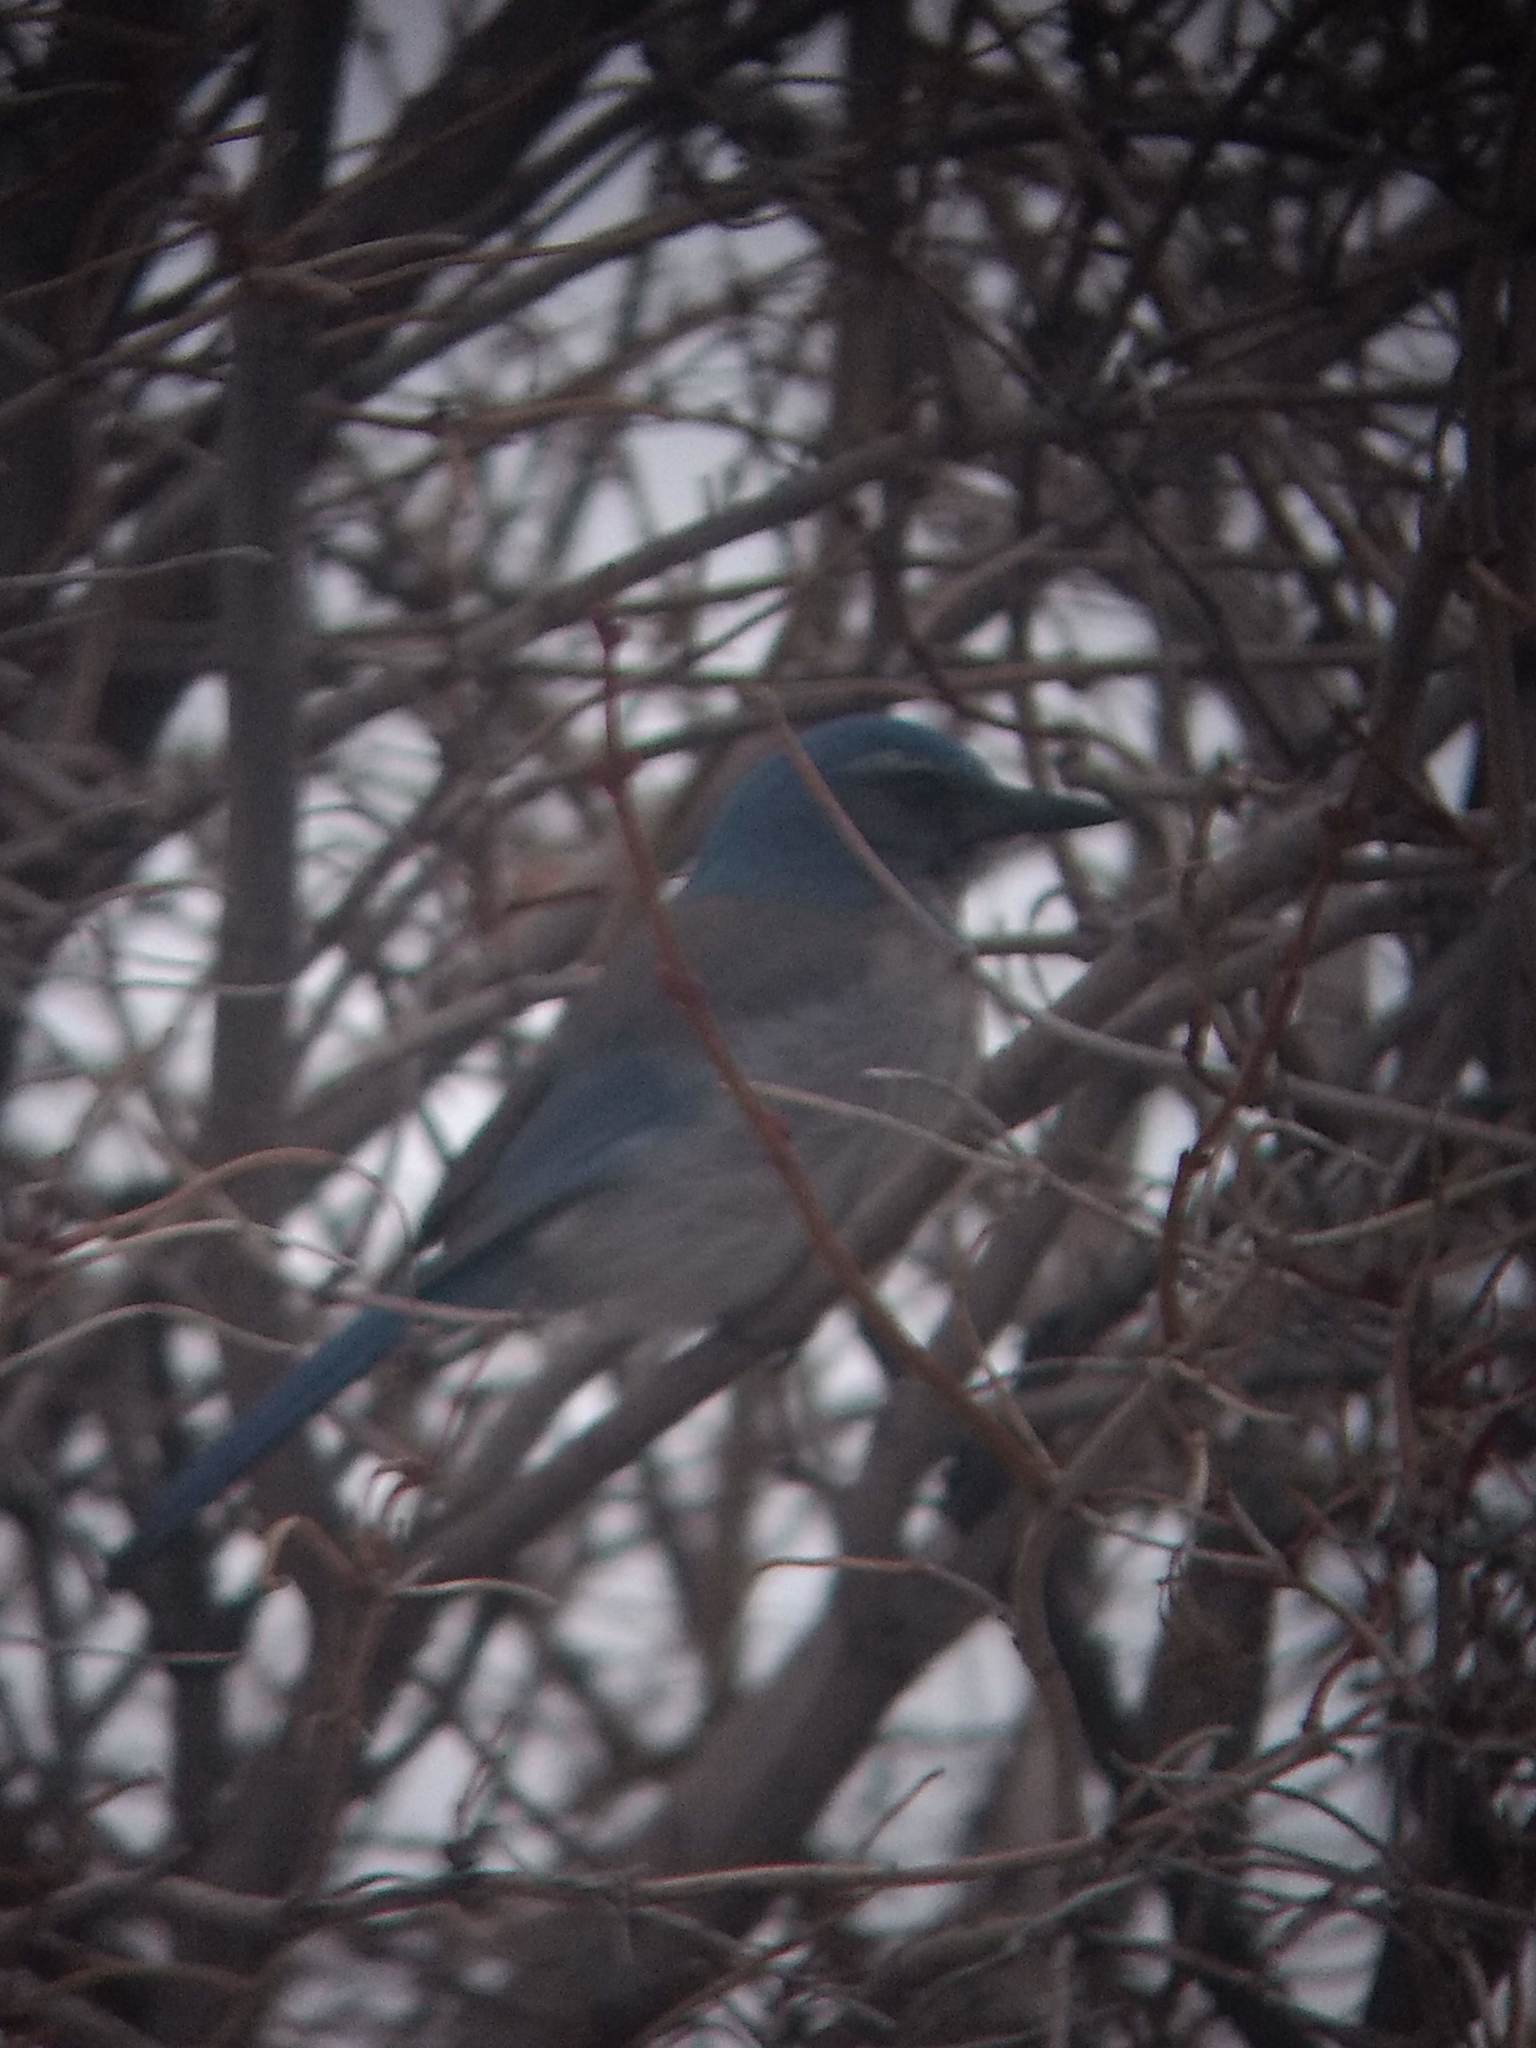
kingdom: Animalia
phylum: Chordata
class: Aves
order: Passeriformes
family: Corvidae
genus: Aphelocoma
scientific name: Aphelocoma woodhouseii
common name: Woodhouse's scrub-jay
